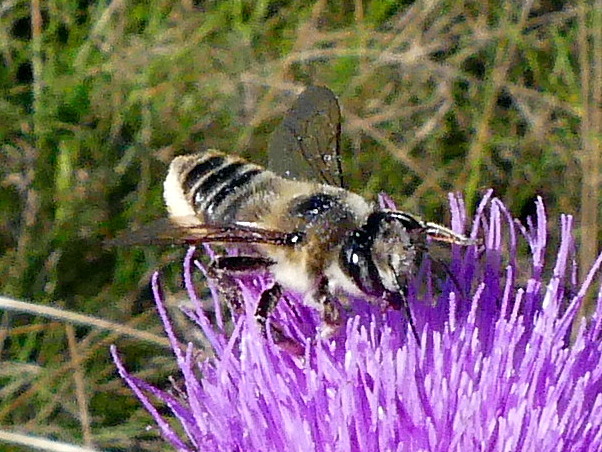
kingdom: Animalia
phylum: Arthropoda
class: Insecta
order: Hymenoptera
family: Megachilidae
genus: Megachile
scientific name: Megachile latimanus
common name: Leafcutting bee
